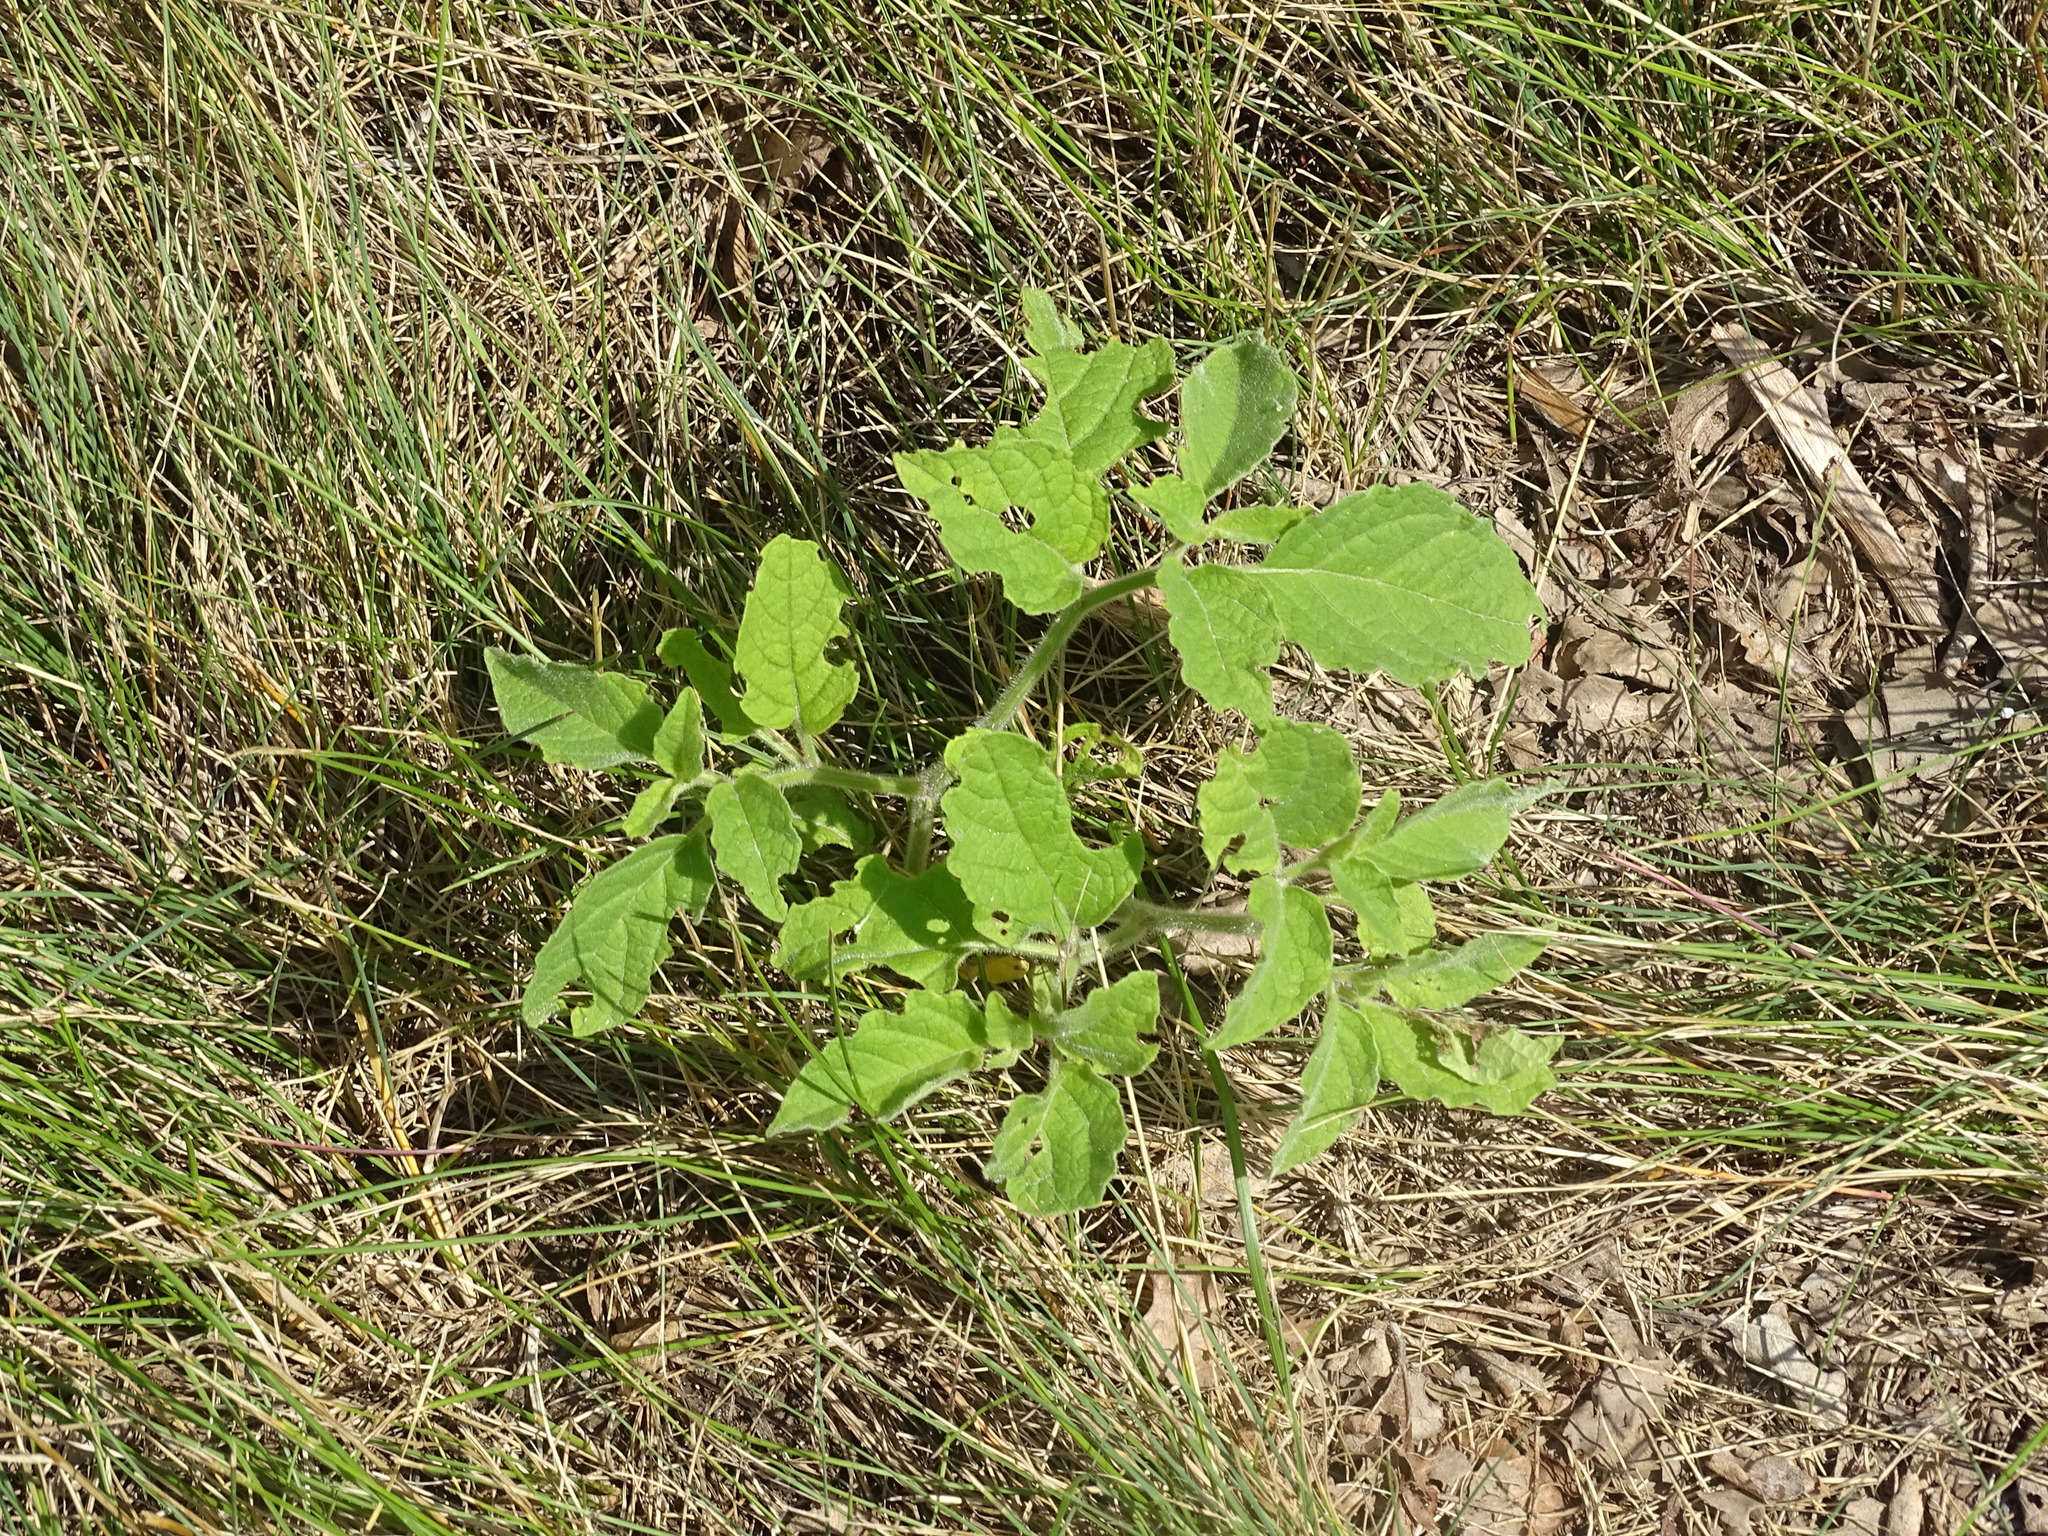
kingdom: Plantae
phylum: Tracheophyta
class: Magnoliopsida
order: Solanales
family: Solanaceae
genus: Physalis
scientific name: Physalis heterophylla
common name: Clammy ground-cherry
